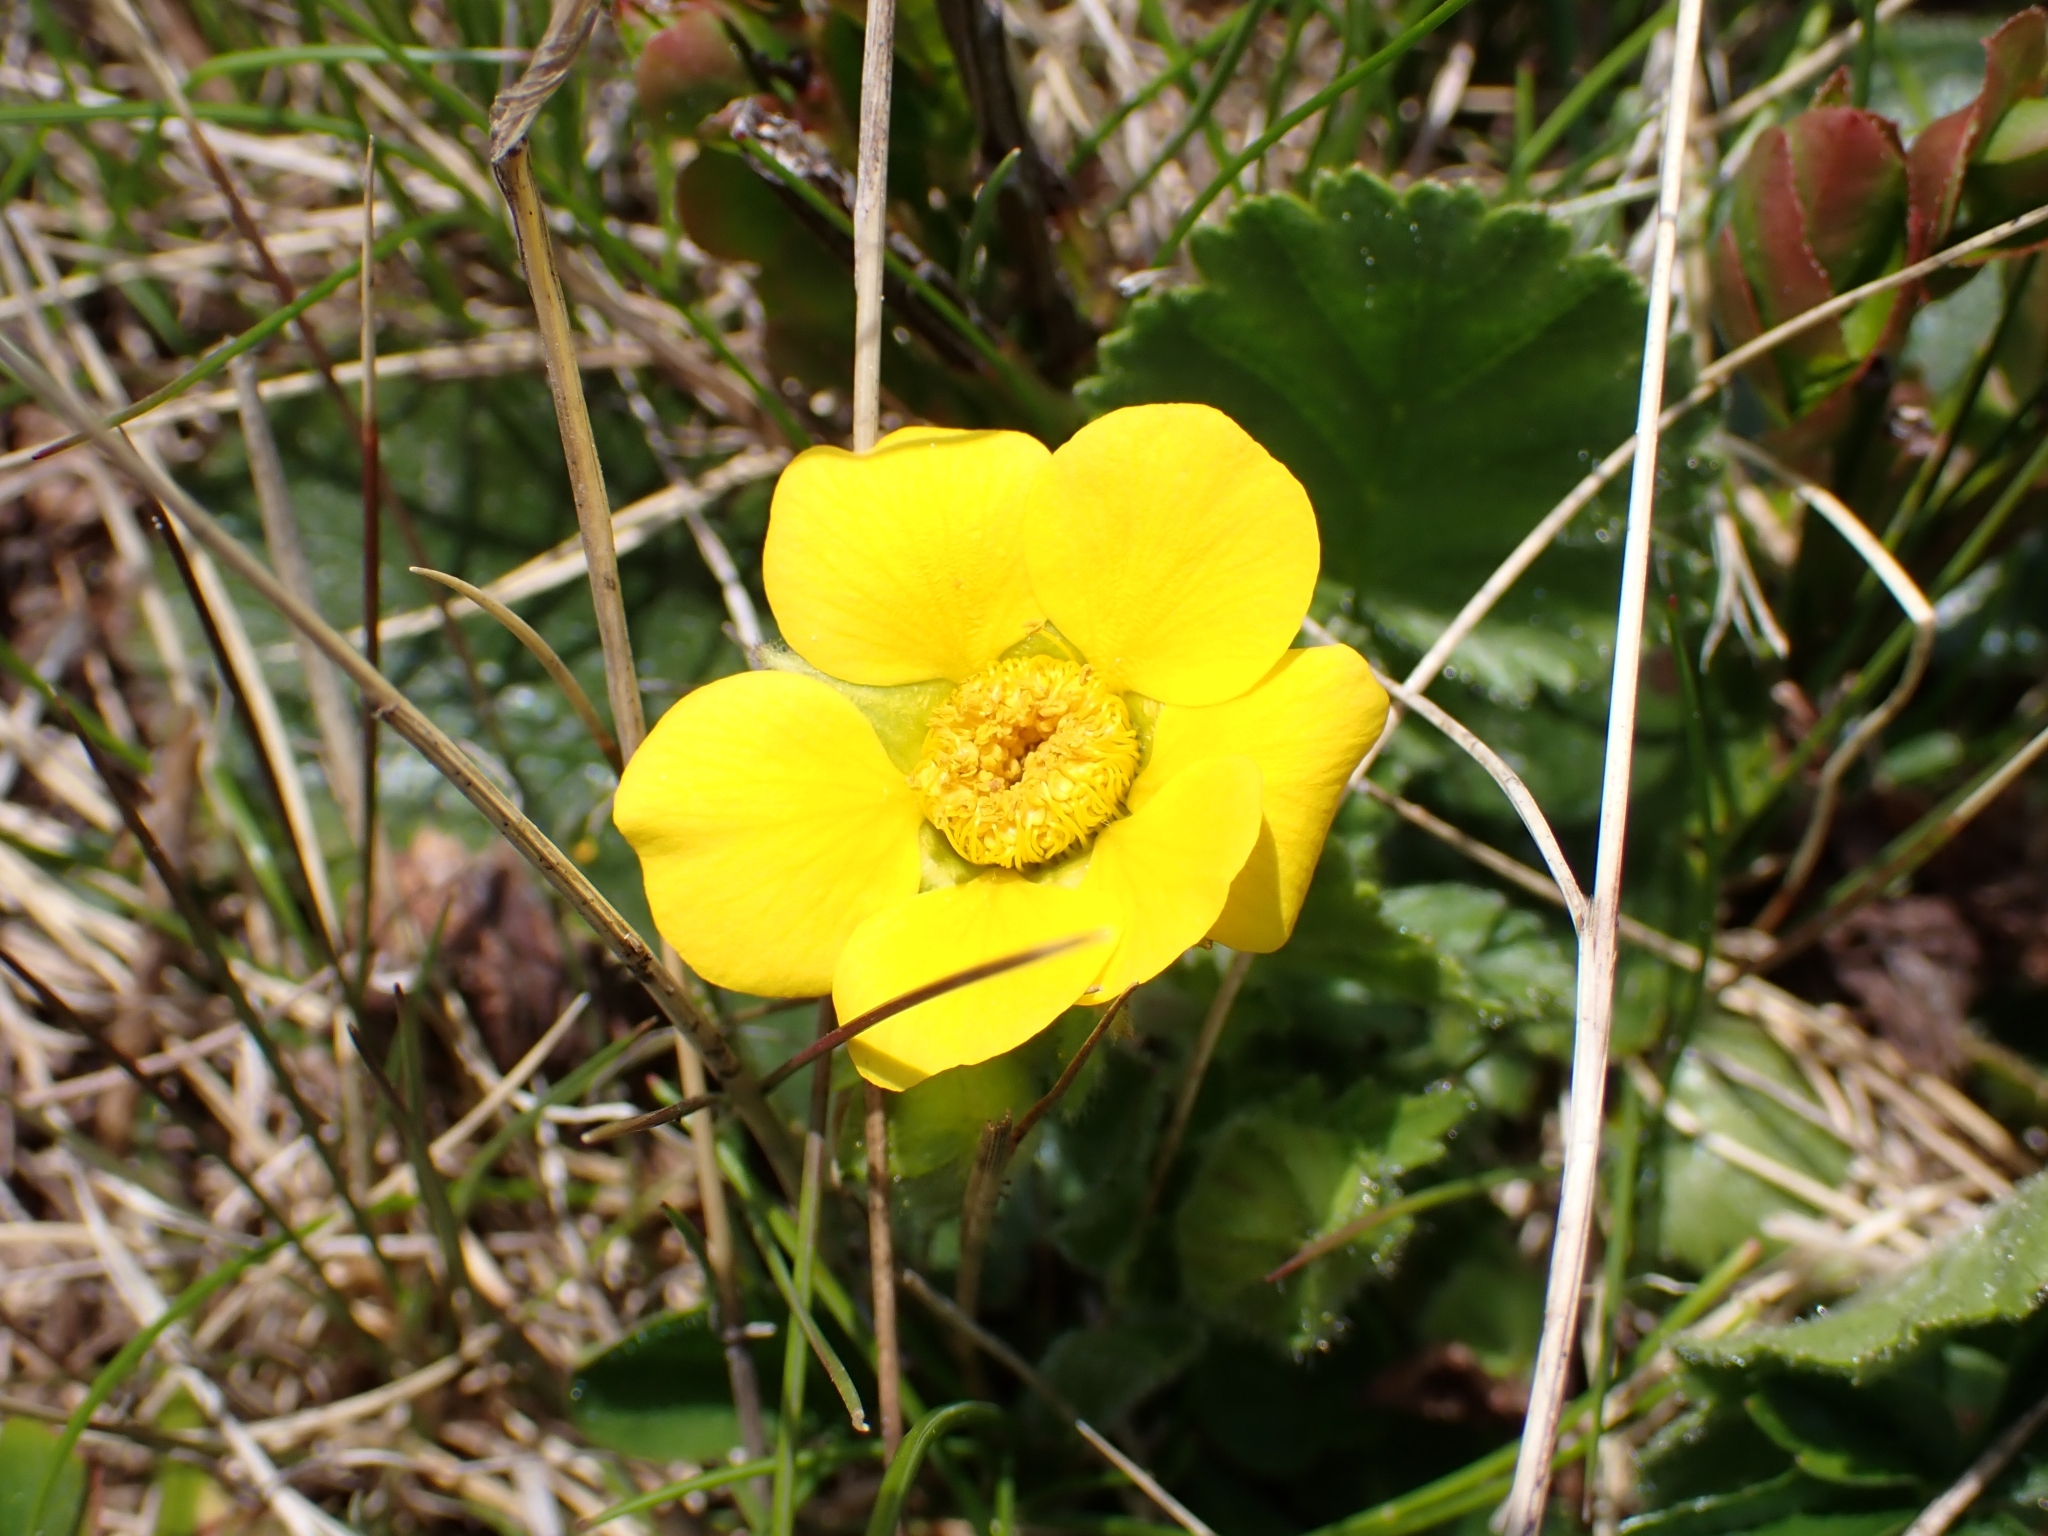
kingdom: Plantae
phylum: Tracheophyta
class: Magnoliopsida
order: Rosales
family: Rosaceae
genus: Geum
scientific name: Geum montanum
